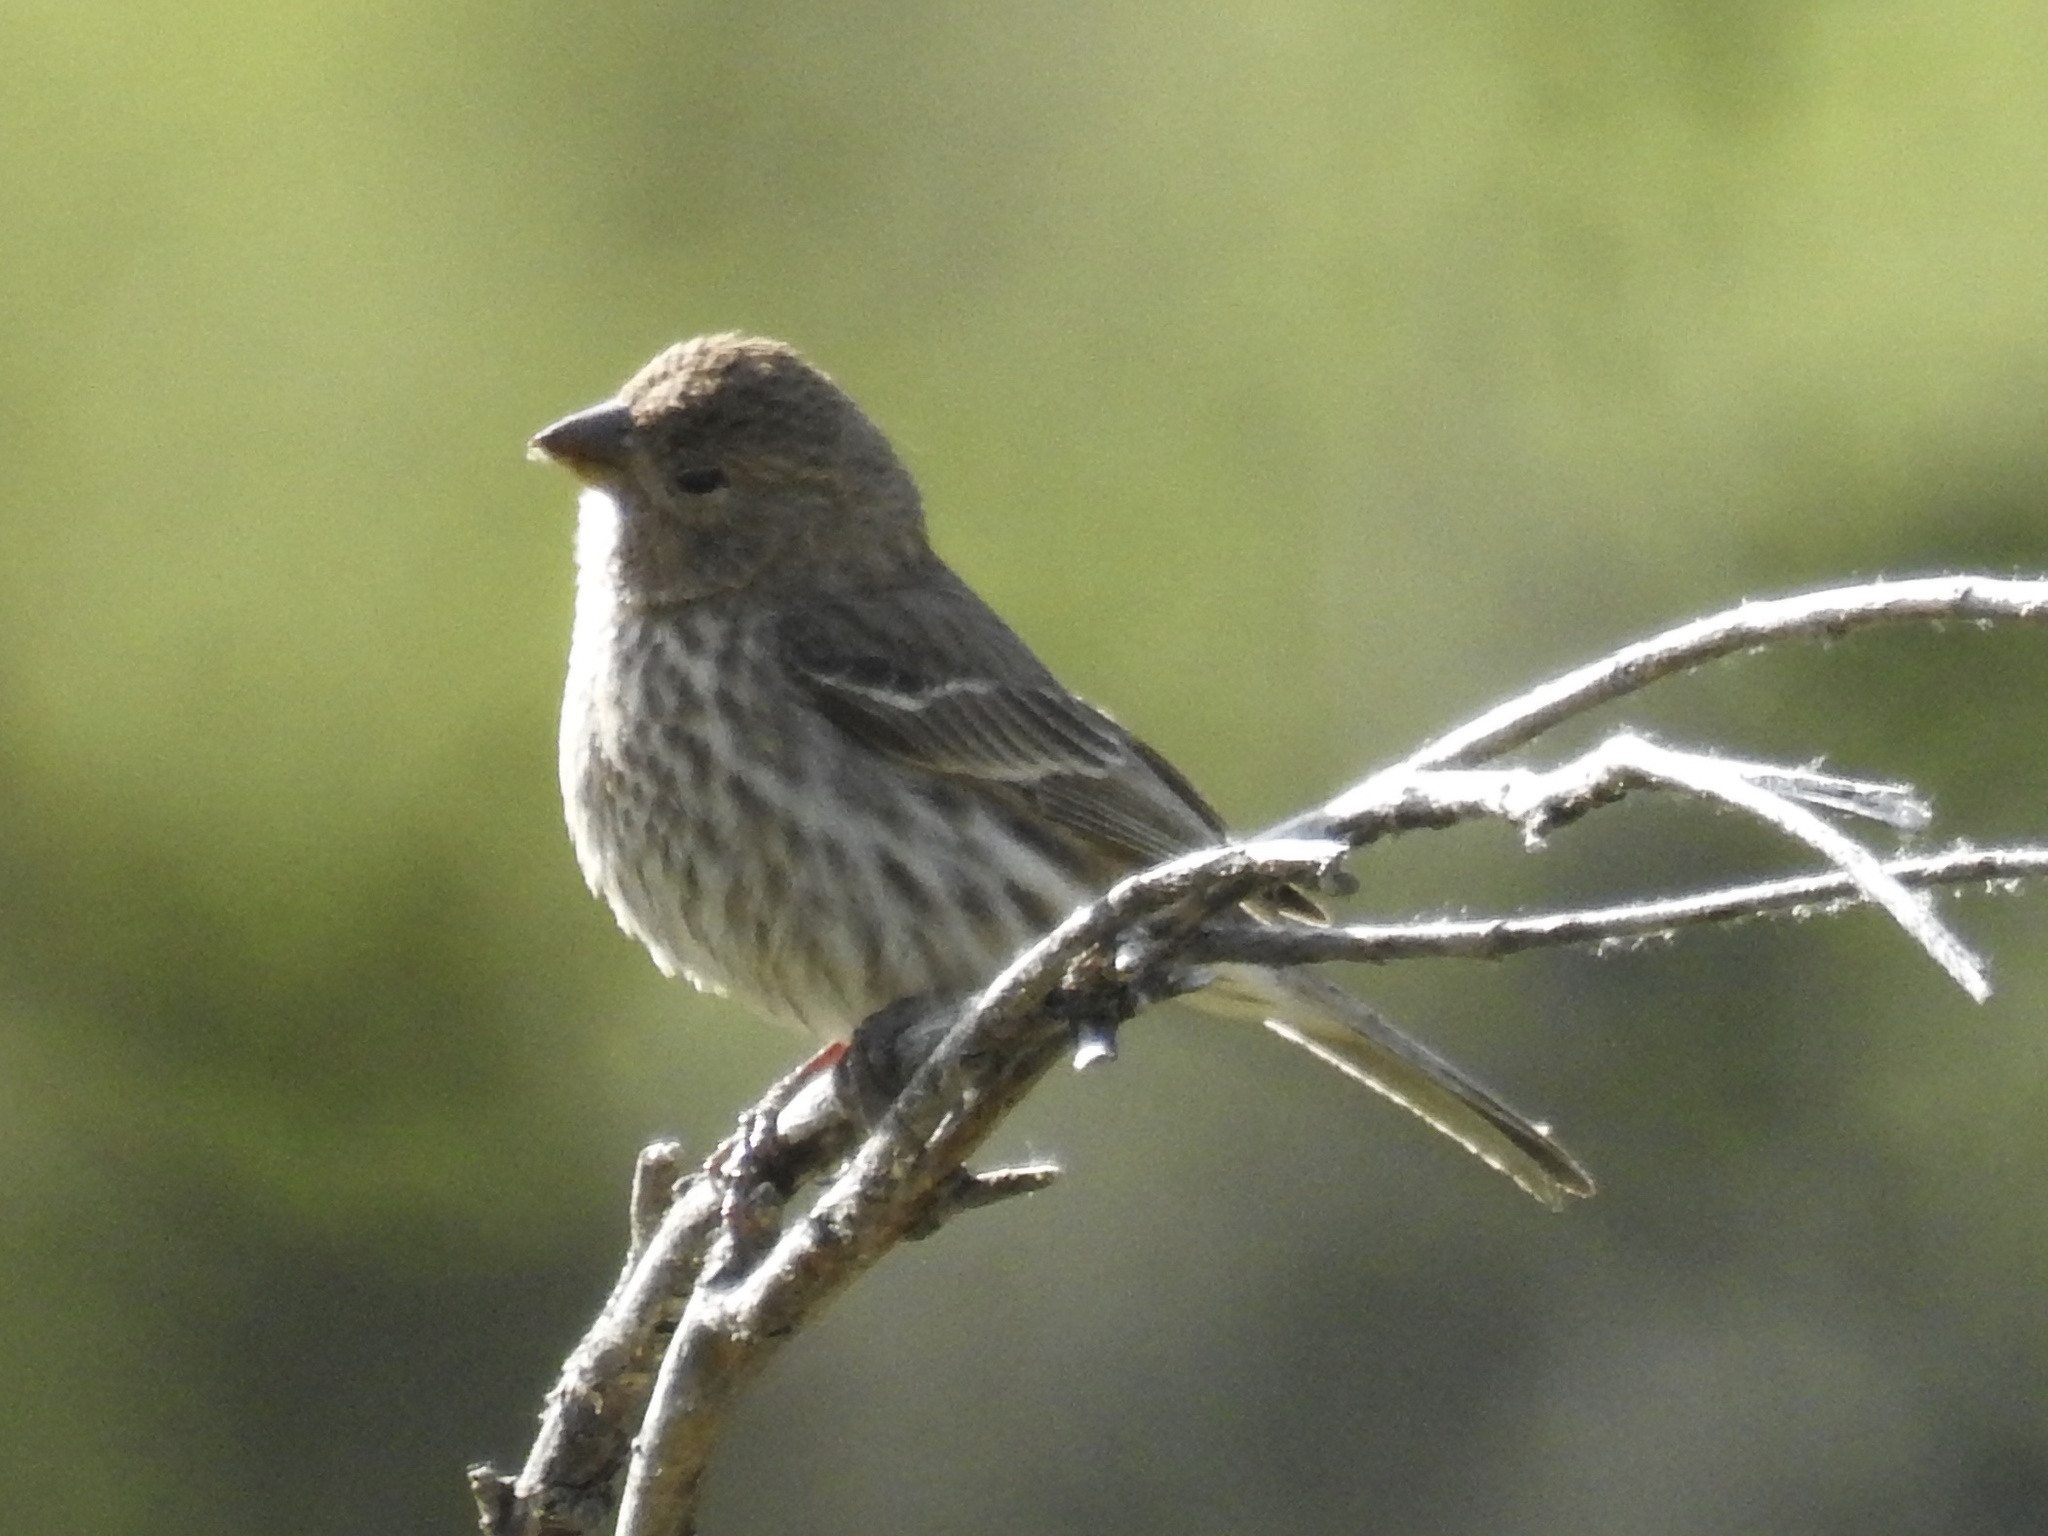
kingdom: Animalia
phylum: Chordata
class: Aves
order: Passeriformes
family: Fringillidae
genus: Haemorhous
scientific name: Haemorhous mexicanus
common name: House finch
